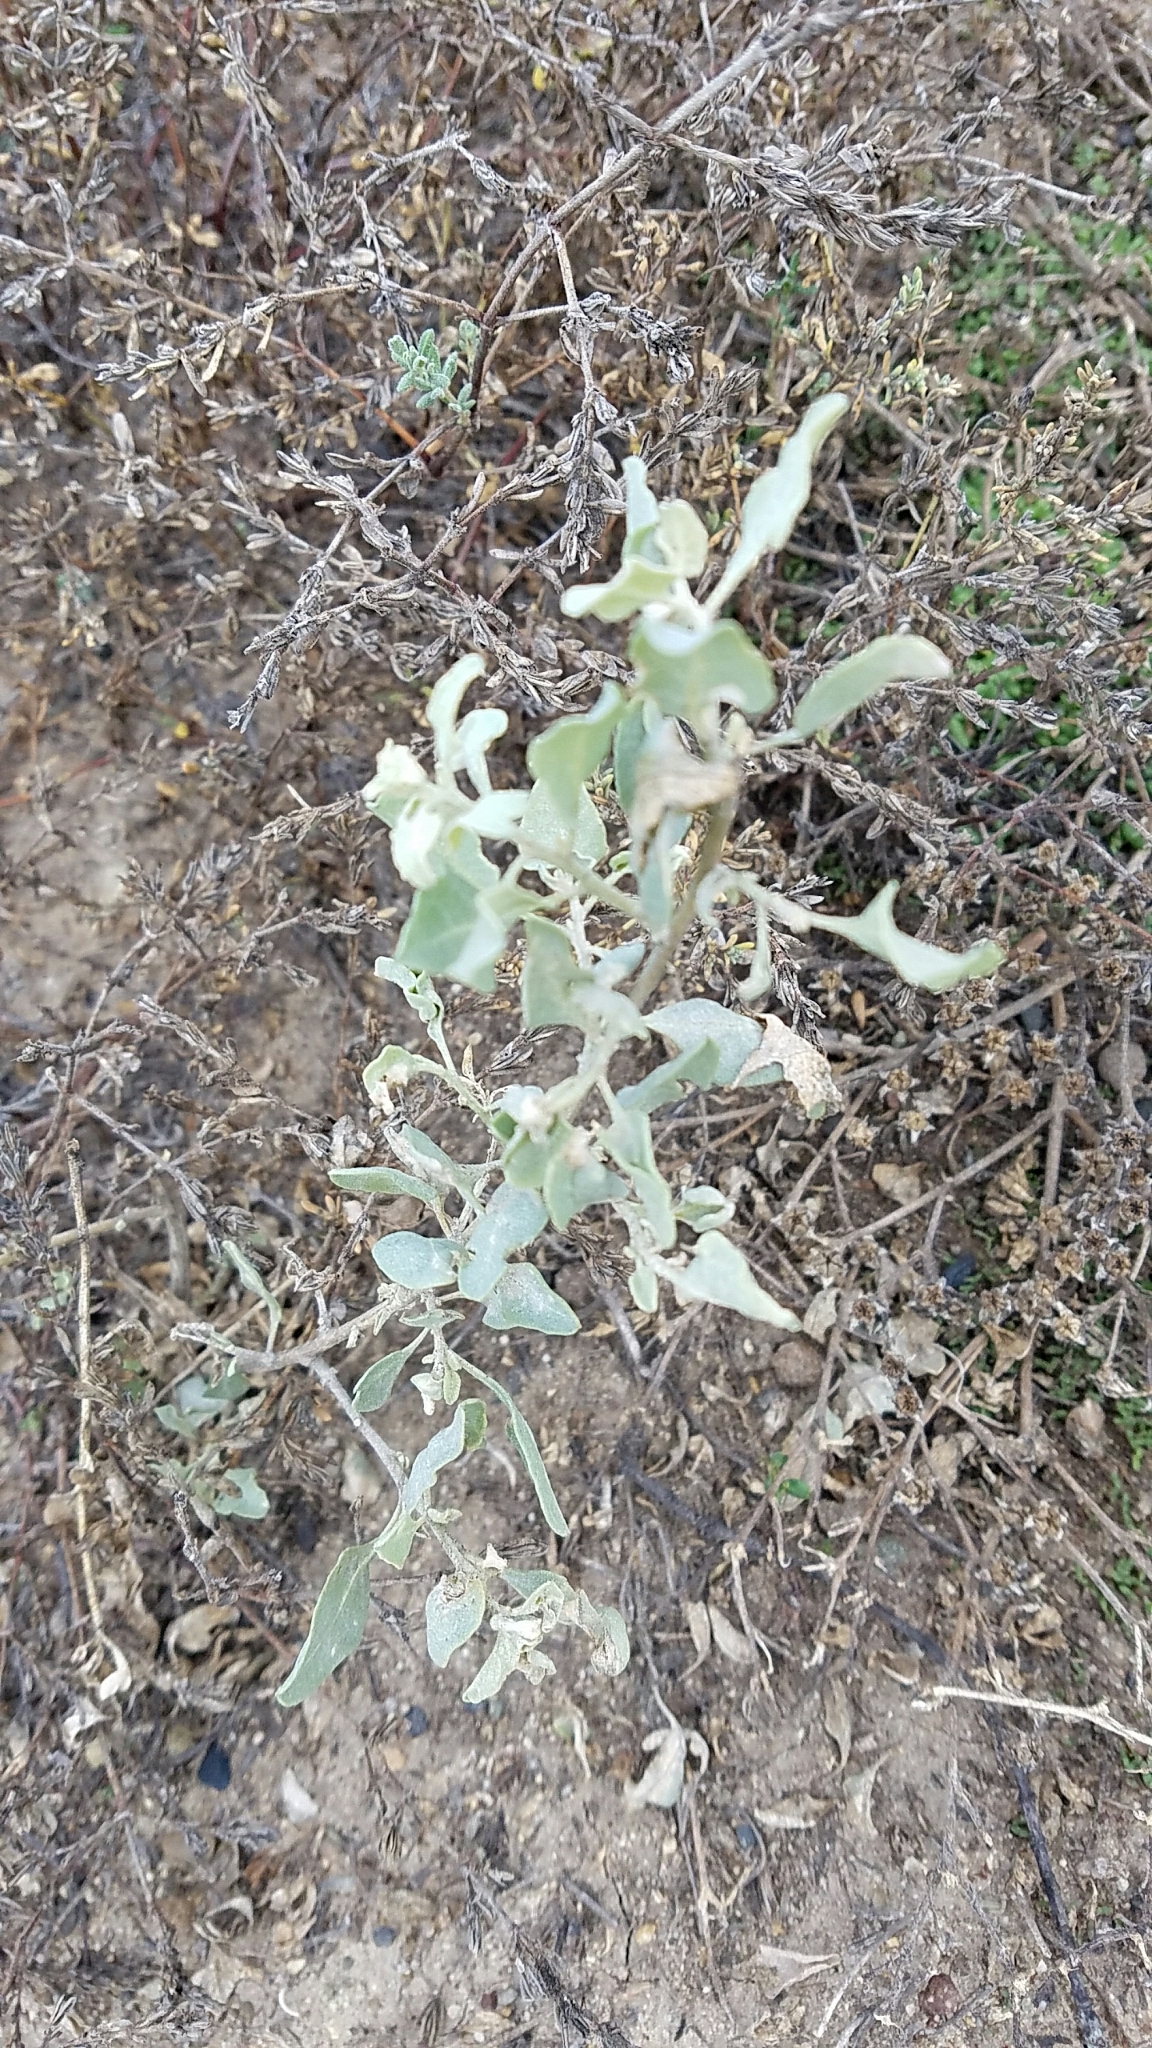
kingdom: Plantae
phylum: Tracheophyta
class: Magnoliopsida
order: Caryophyllales
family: Amaranthaceae
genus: Atriplex
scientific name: Atriplex lentiformis
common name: Big saltbush
